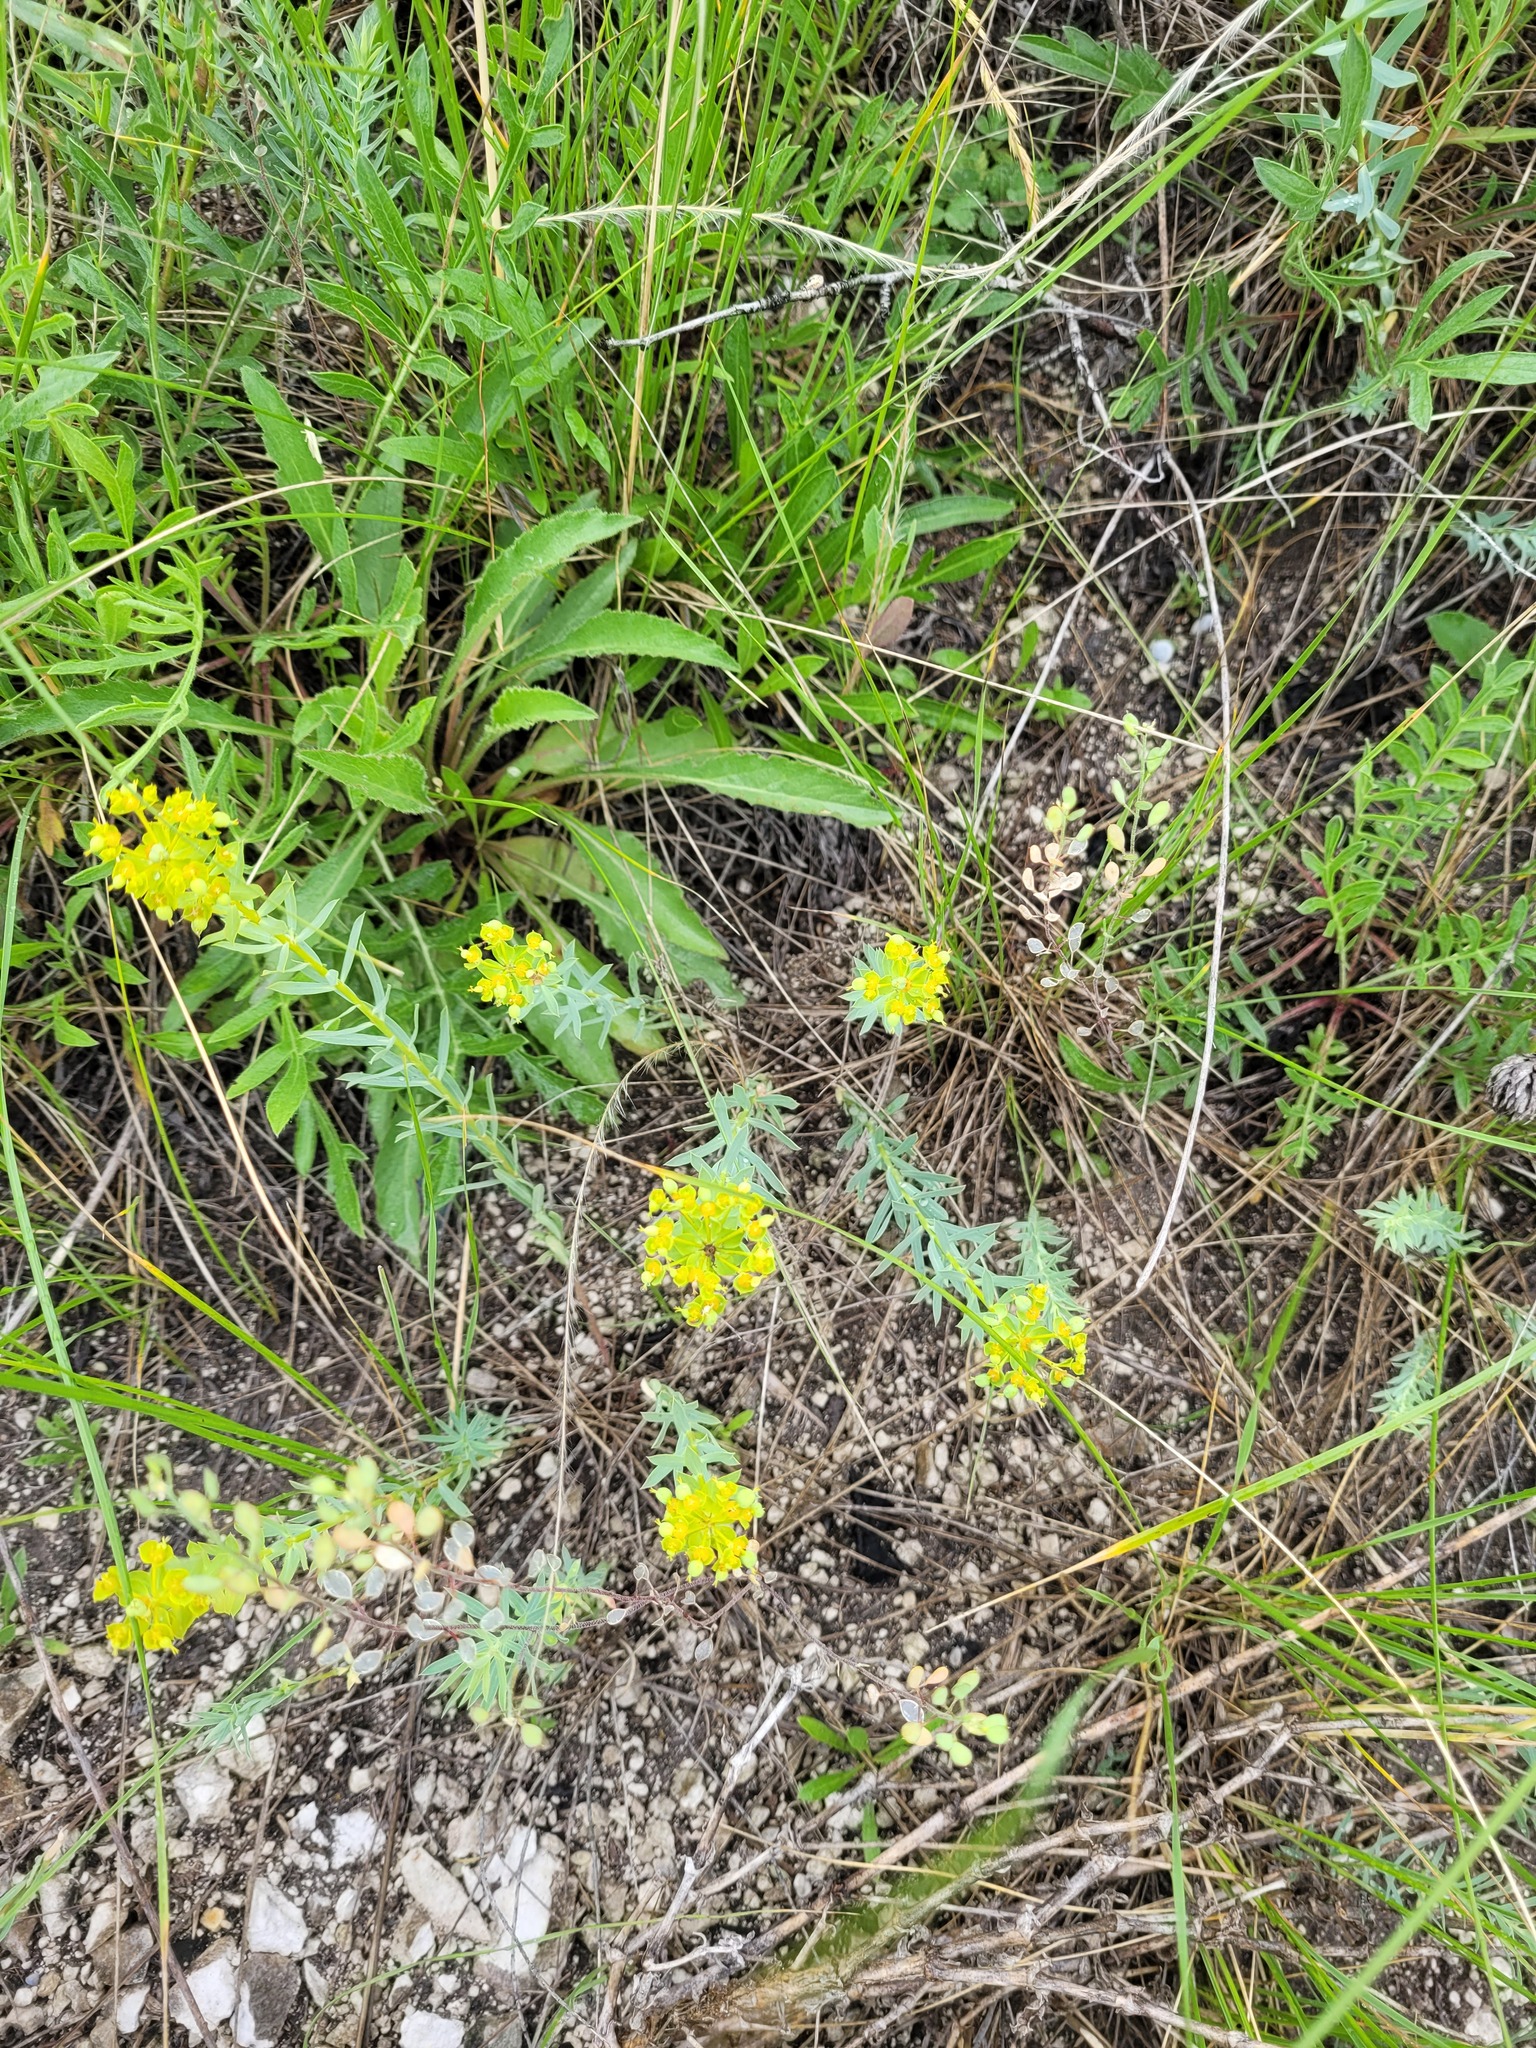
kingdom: Plantae
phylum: Tracheophyta
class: Magnoliopsida
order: Malpighiales
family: Euphorbiaceae
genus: Euphorbia
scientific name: Euphorbia seguieriana
